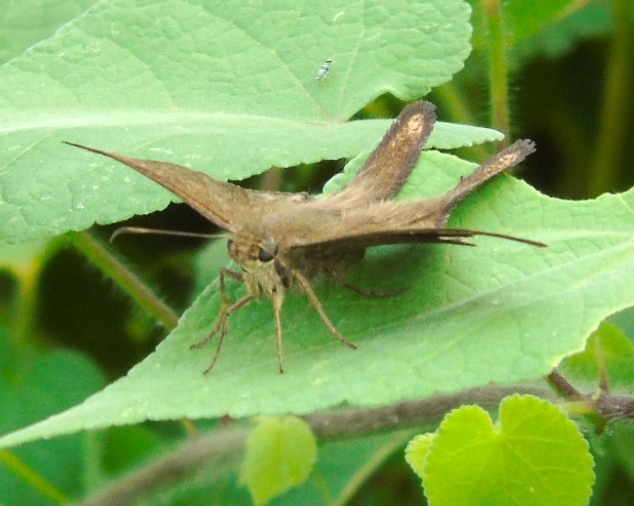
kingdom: Animalia
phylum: Arthropoda
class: Insecta
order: Lepidoptera
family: Hesperiidae
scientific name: Hesperiidae
